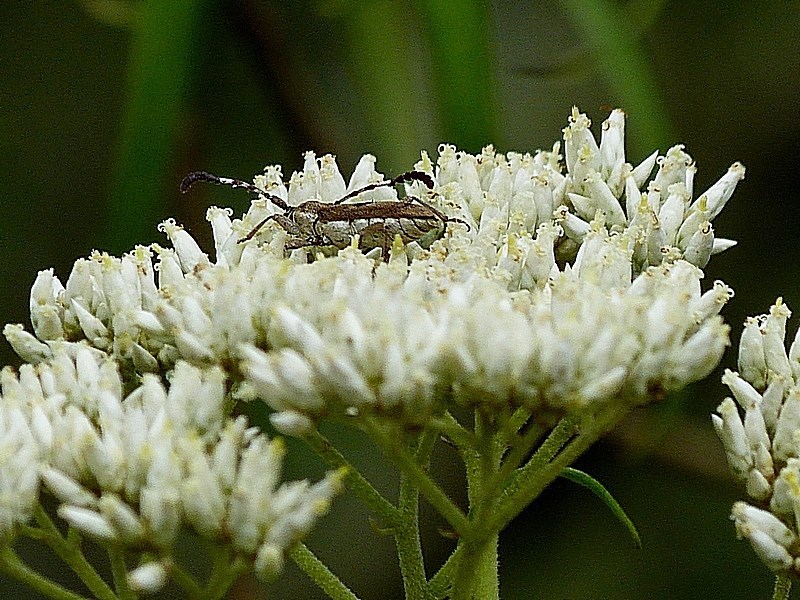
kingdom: Animalia
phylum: Arthropoda
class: Insecta
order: Coleoptera
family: Cerambycidae
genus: Pempsamacra
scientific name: Pempsamacra tillides
